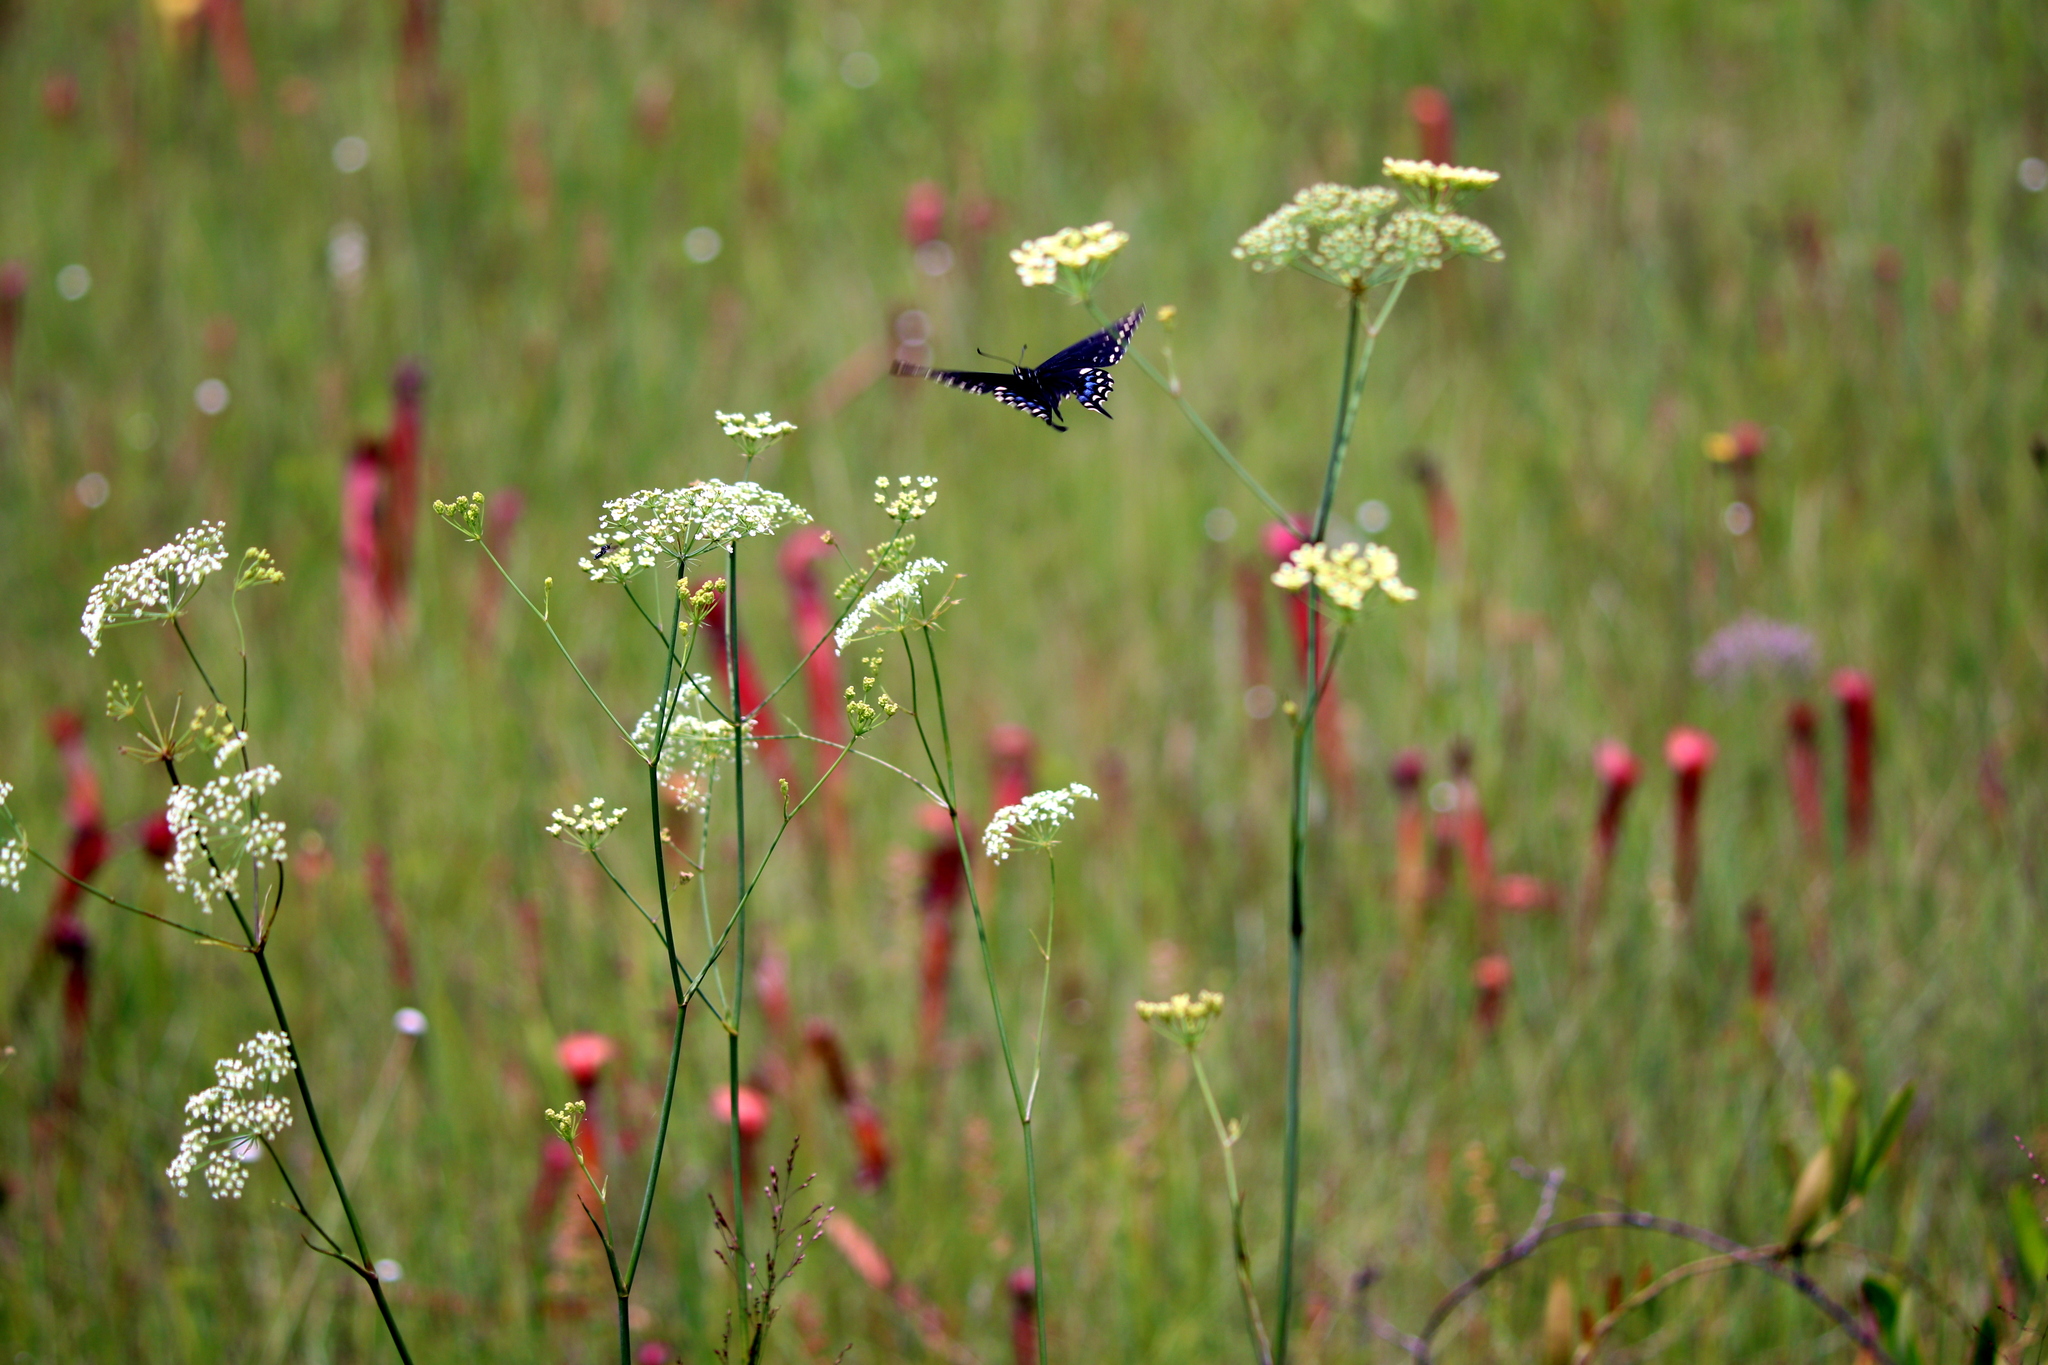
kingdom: Animalia
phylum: Arthropoda
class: Insecta
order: Lepidoptera
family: Papilionidae
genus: Papilio
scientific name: Papilio polyxenes
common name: Black swallowtail
